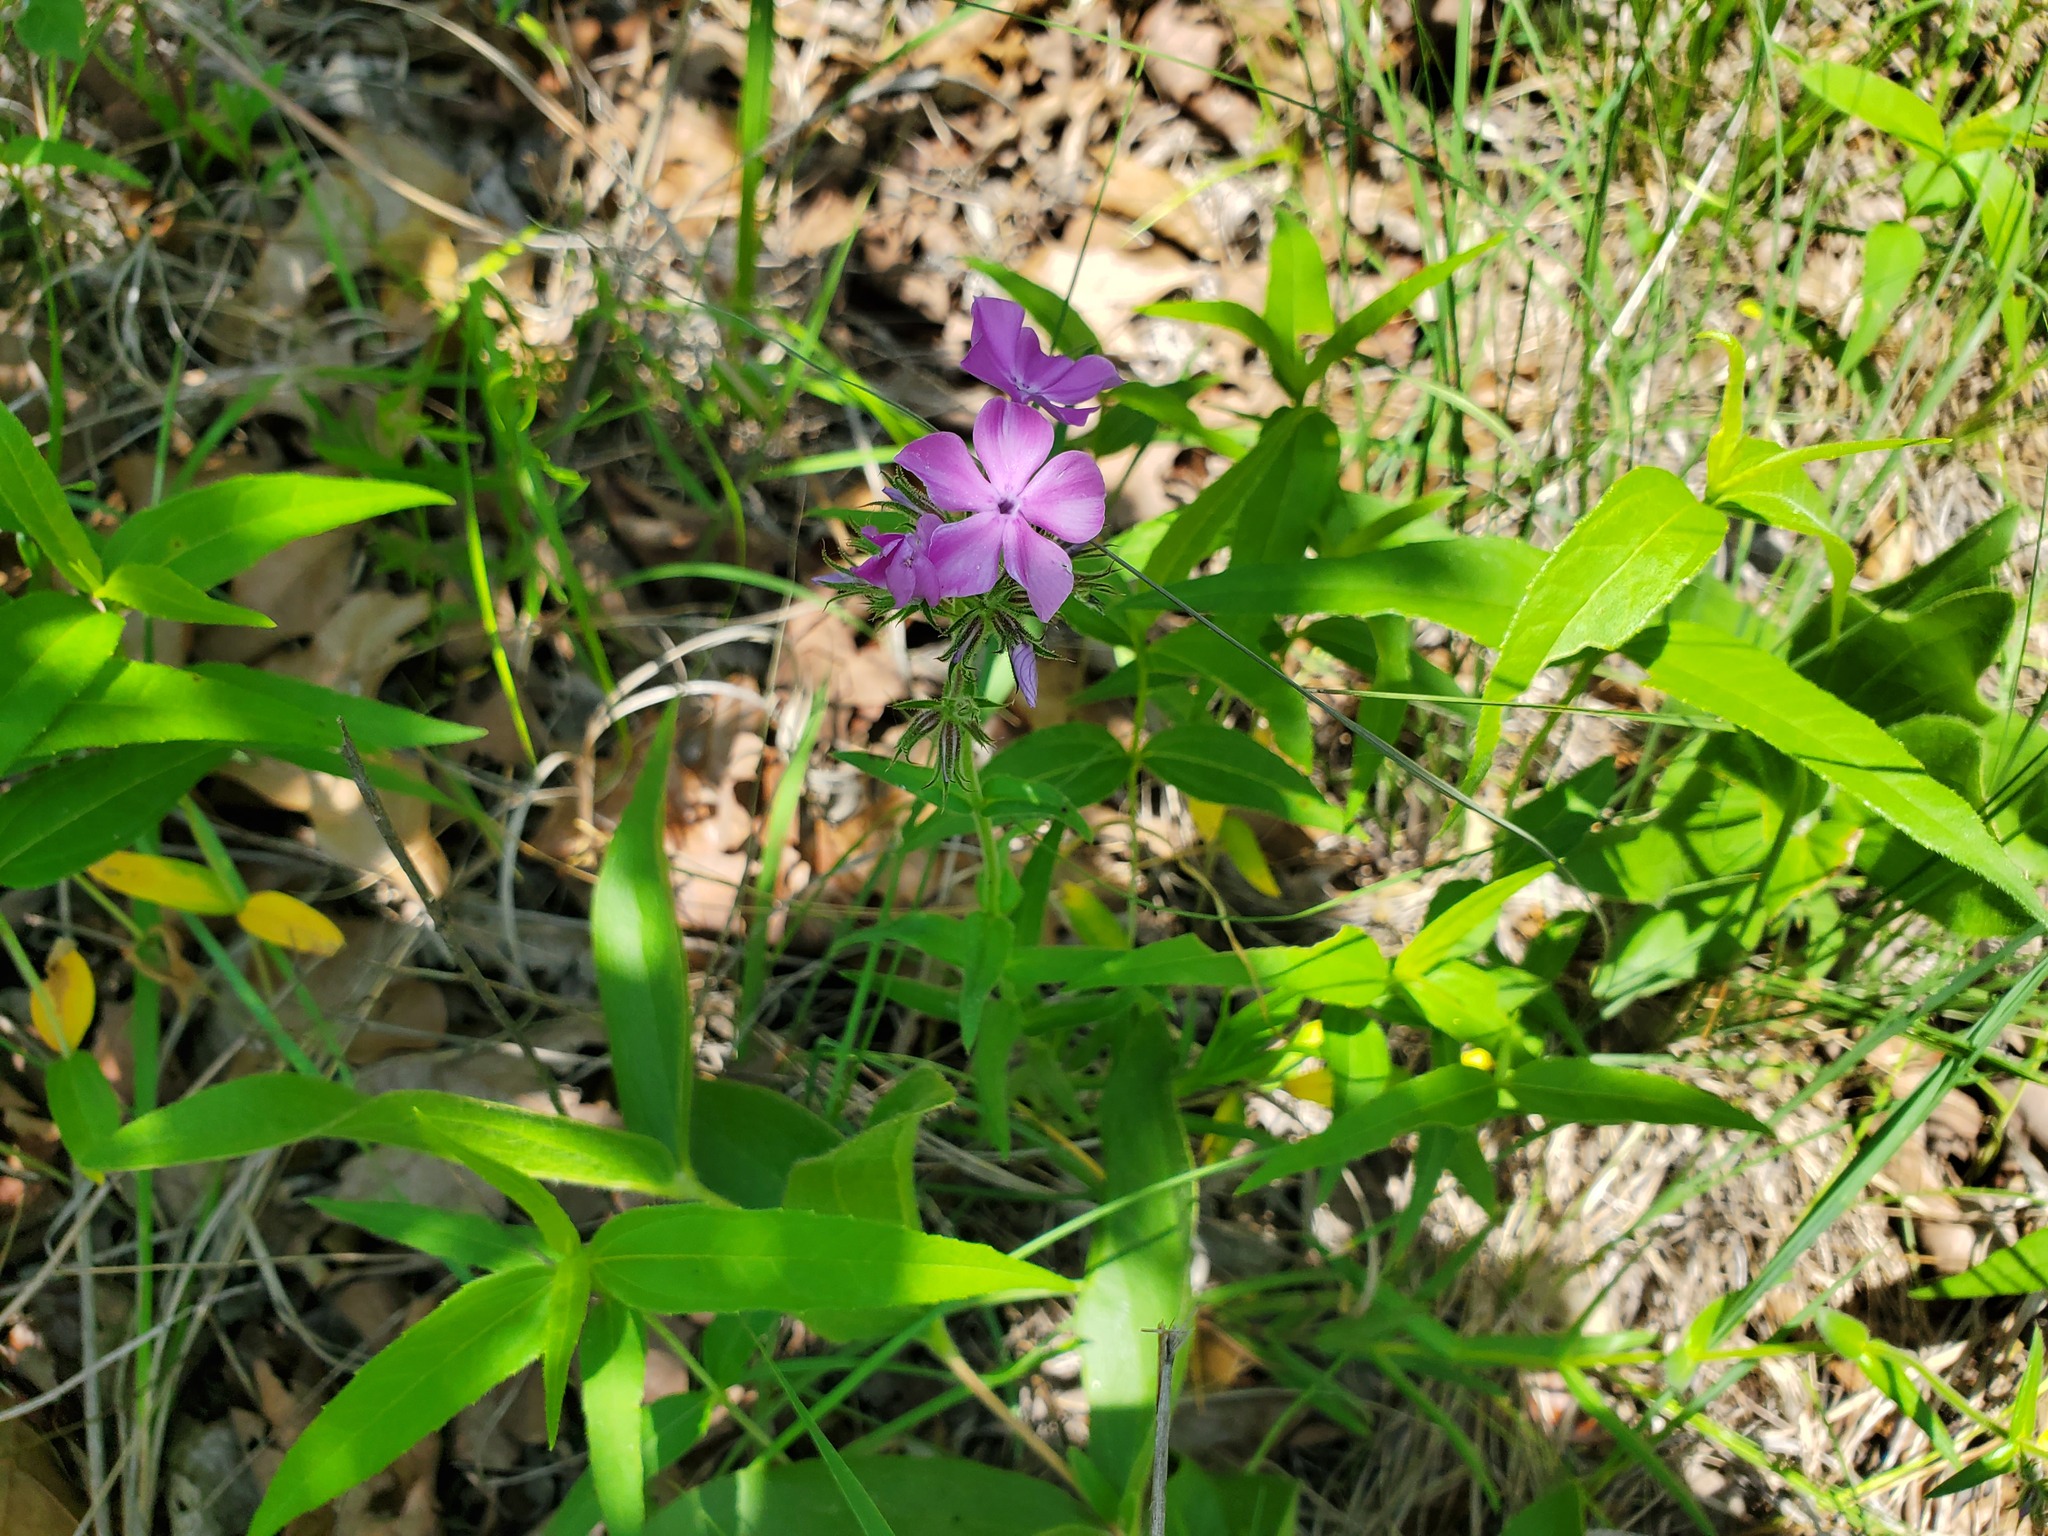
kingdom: Plantae
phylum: Tracheophyta
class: Magnoliopsida
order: Ericales
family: Polemoniaceae
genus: Phlox
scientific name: Phlox pilosa
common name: Prairie phlox
